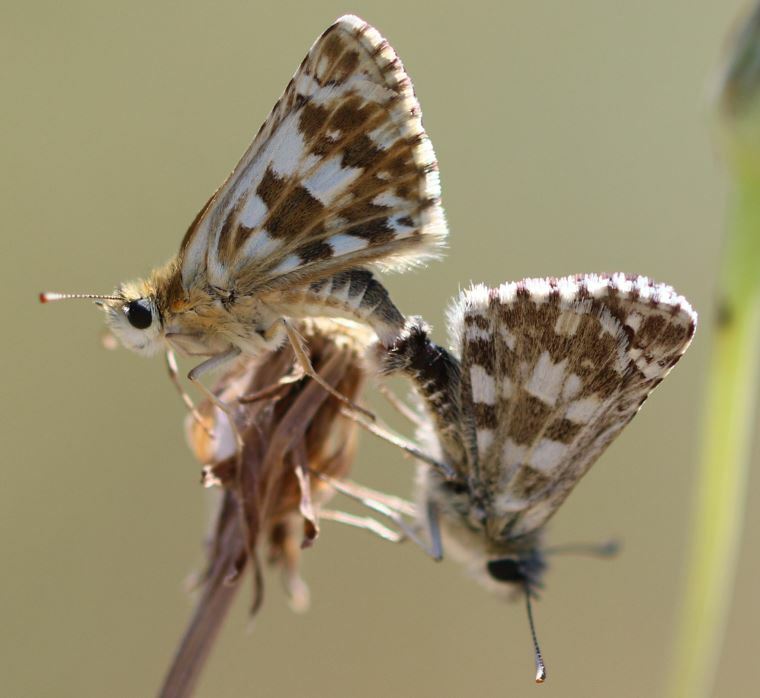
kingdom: Animalia
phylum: Arthropoda
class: Insecta
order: Lepidoptera
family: Hesperiidae
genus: Pyrgus
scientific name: Pyrgus armoricanus
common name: Oberthür's grizzled skipper
